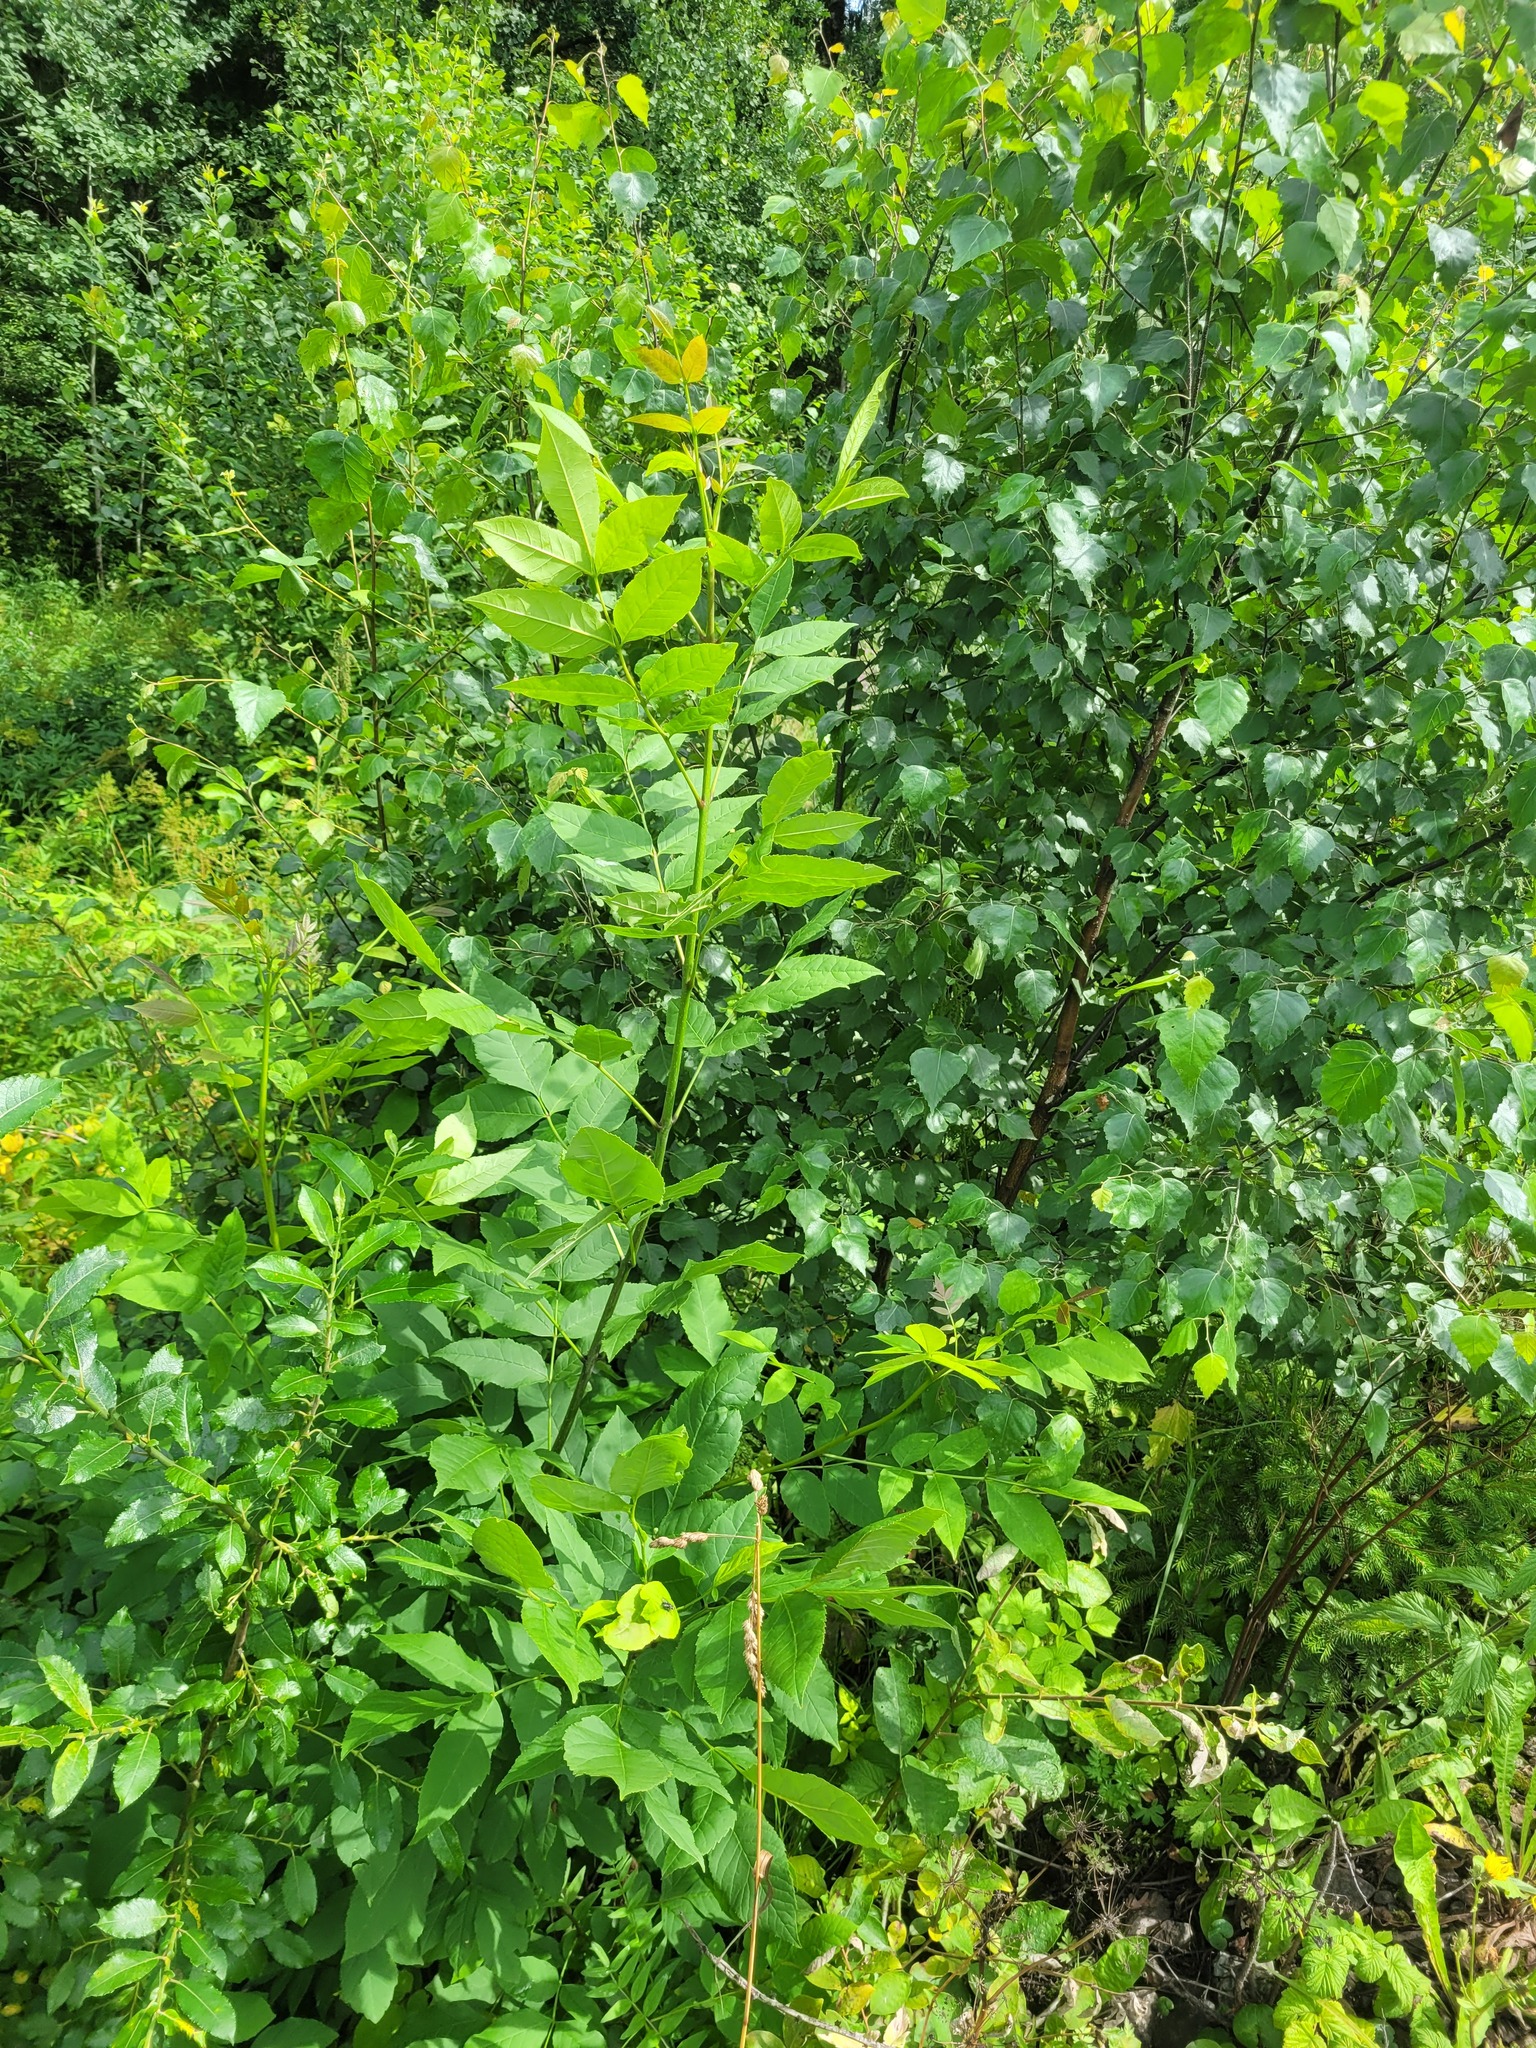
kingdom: Plantae
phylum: Tracheophyta
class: Magnoliopsida
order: Lamiales
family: Oleaceae
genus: Fraxinus
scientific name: Fraxinus pennsylvanica
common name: Green ash
